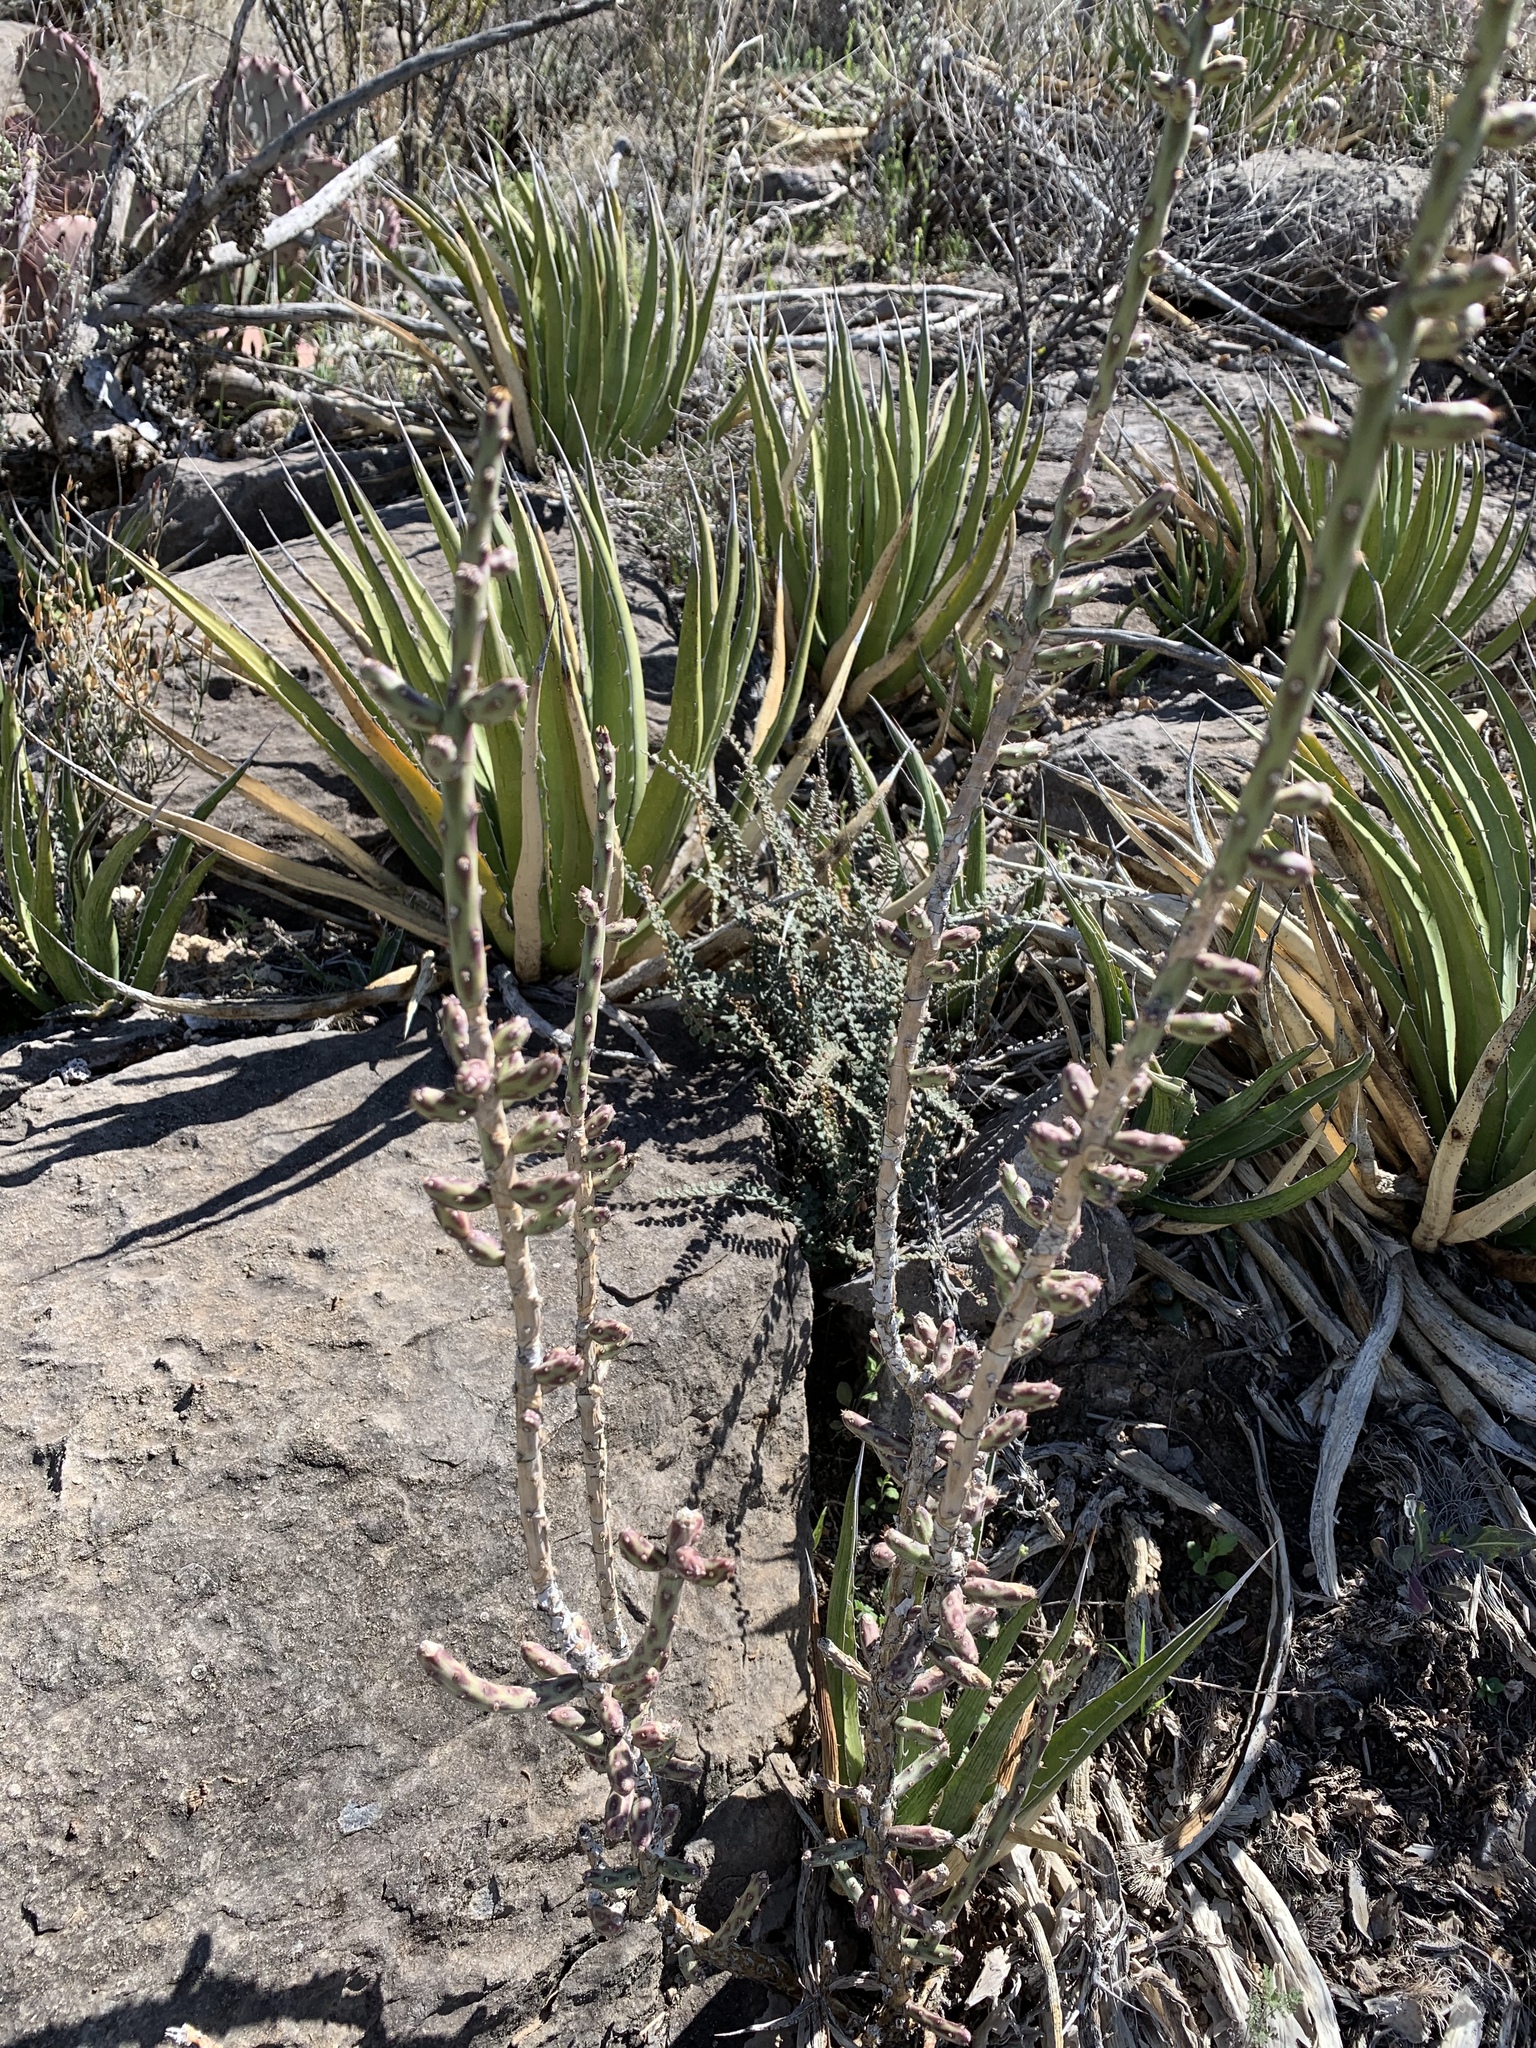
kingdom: Plantae
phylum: Tracheophyta
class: Magnoliopsida
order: Caryophyllales
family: Cactaceae
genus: Cylindropuntia
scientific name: Cylindropuntia leptocaulis
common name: Christmas cactus
